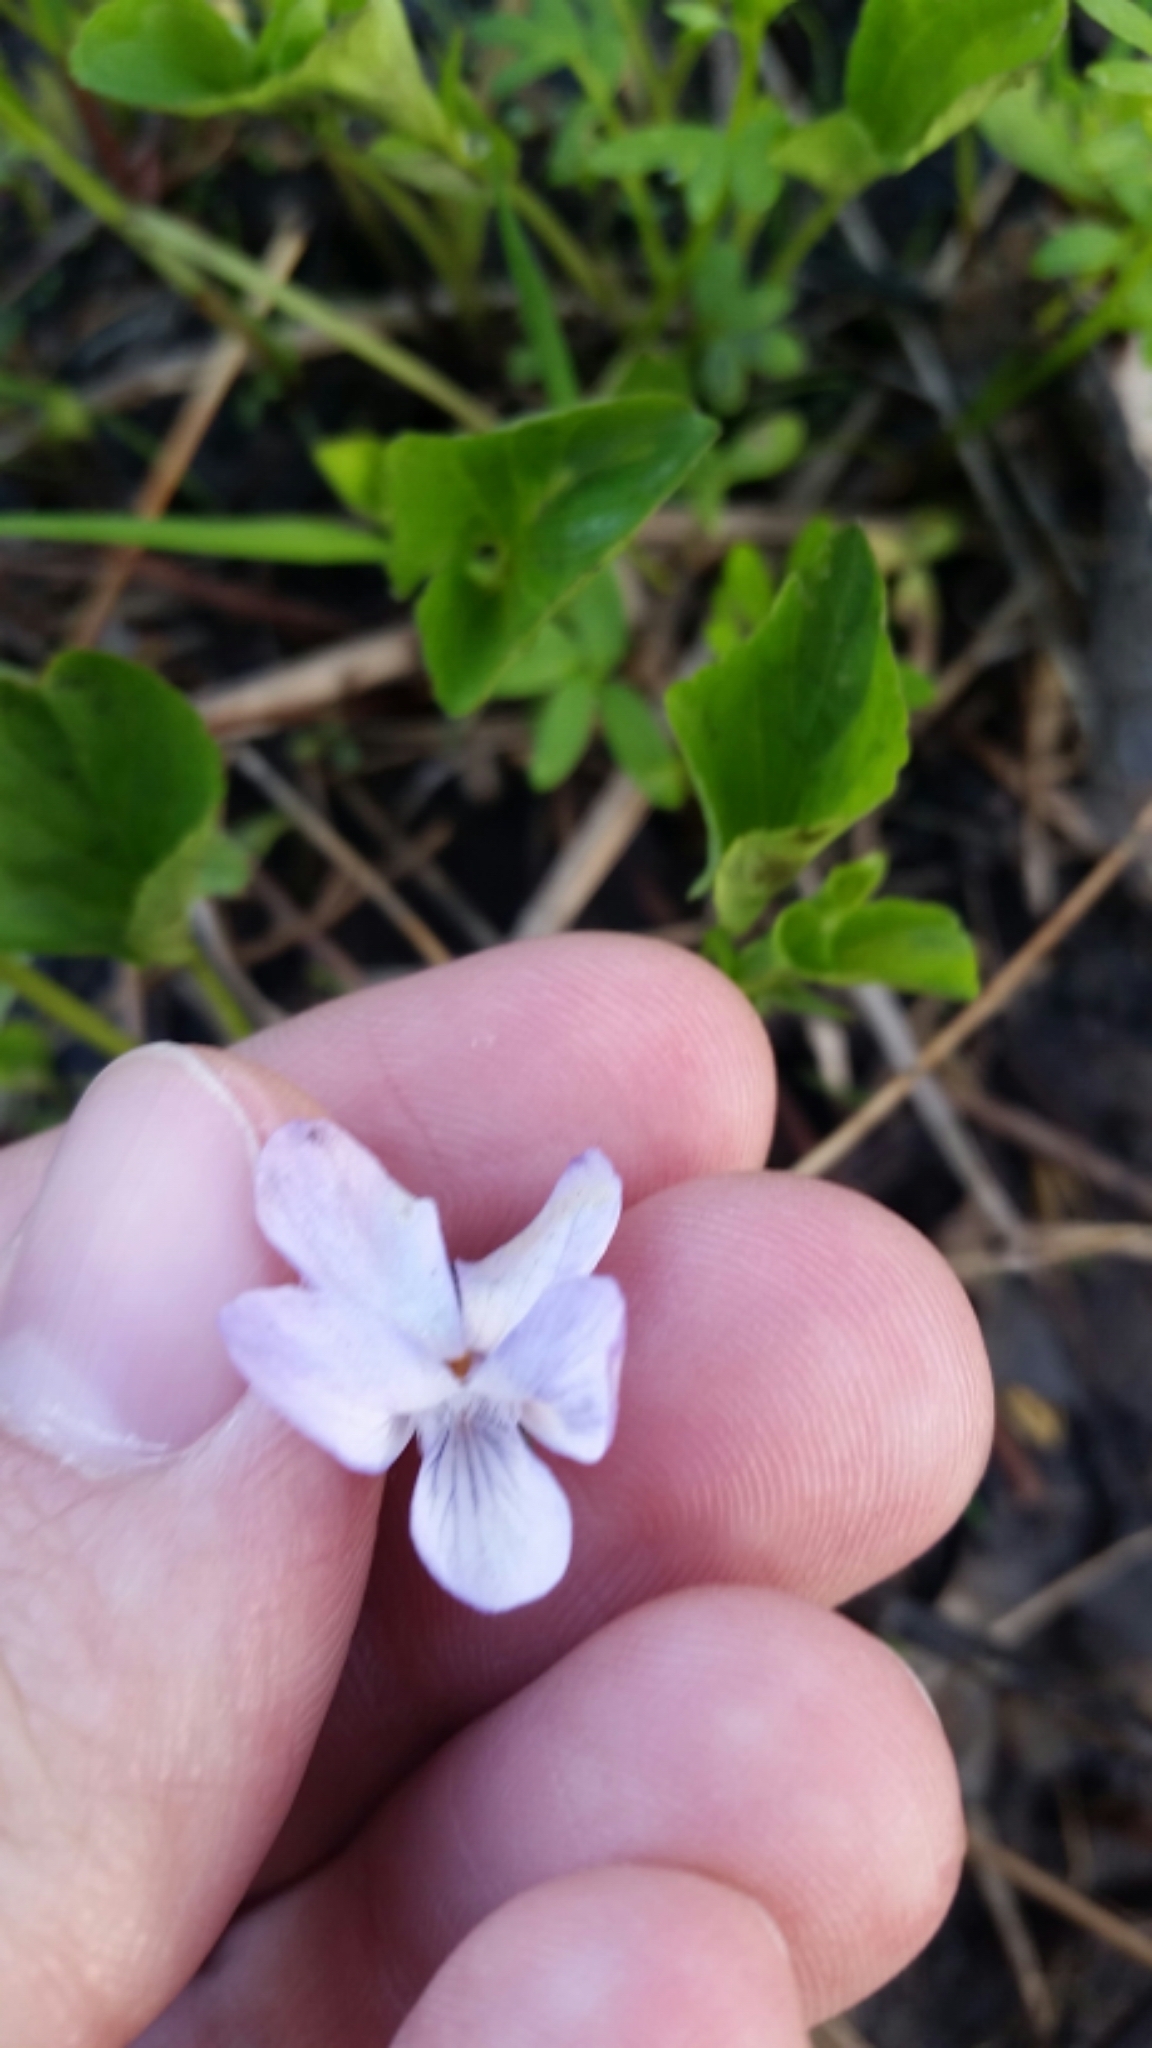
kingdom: Plantae
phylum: Tracheophyta
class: Magnoliopsida
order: Malpighiales
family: Violaceae
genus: Viola
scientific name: Viola labradorica
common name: Labrador violet
